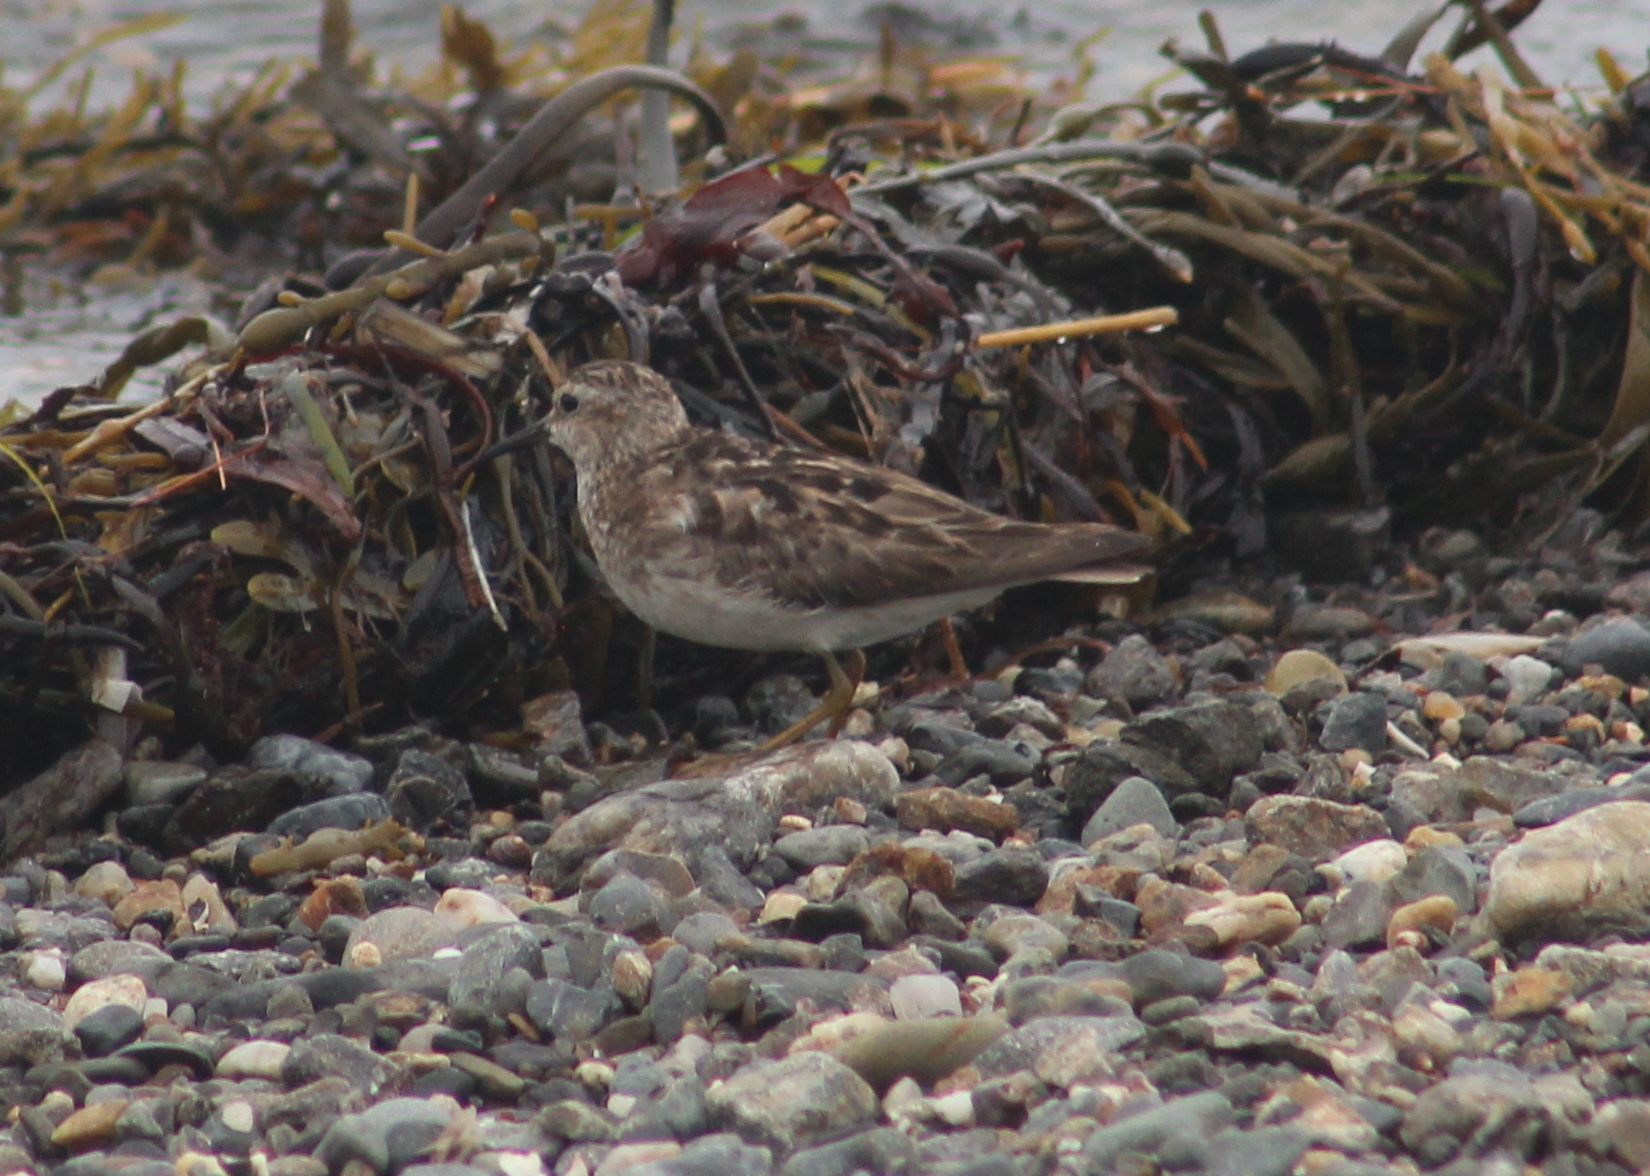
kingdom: Animalia
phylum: Chordata
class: Aves
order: Charadriiformes
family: Scolopacidae
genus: Calidris
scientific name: Calidris minutilla
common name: Least sandpiper
